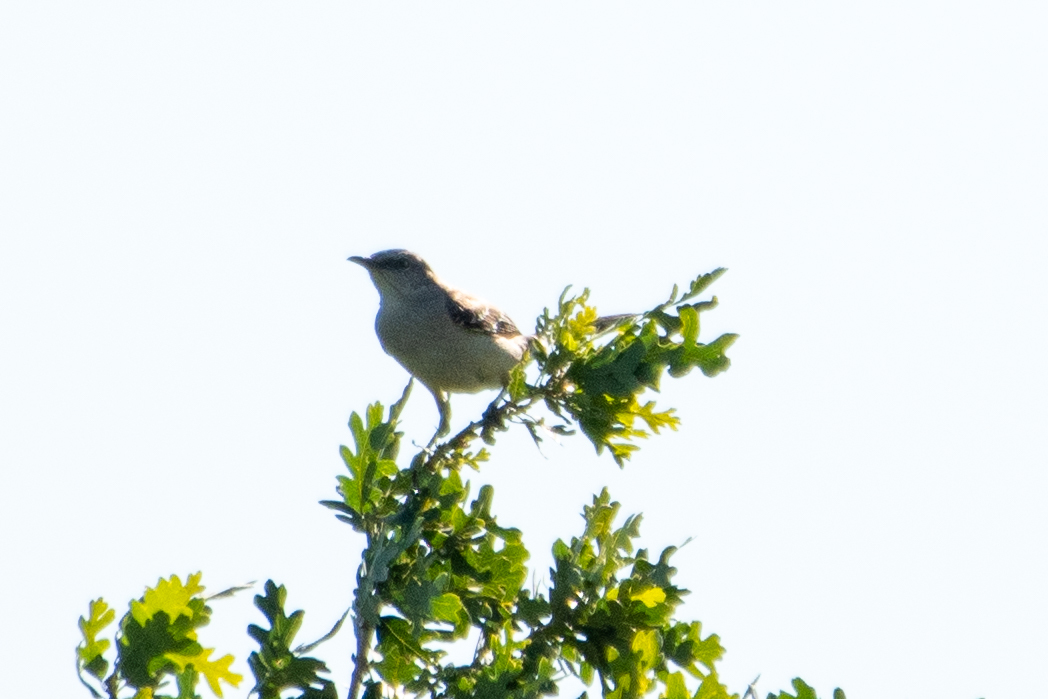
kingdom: Animalia
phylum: Chordata
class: Aves
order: Passeriformes
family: Mimidae
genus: Mimus
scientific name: Mimus polyglottos
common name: Northern mockingbird
